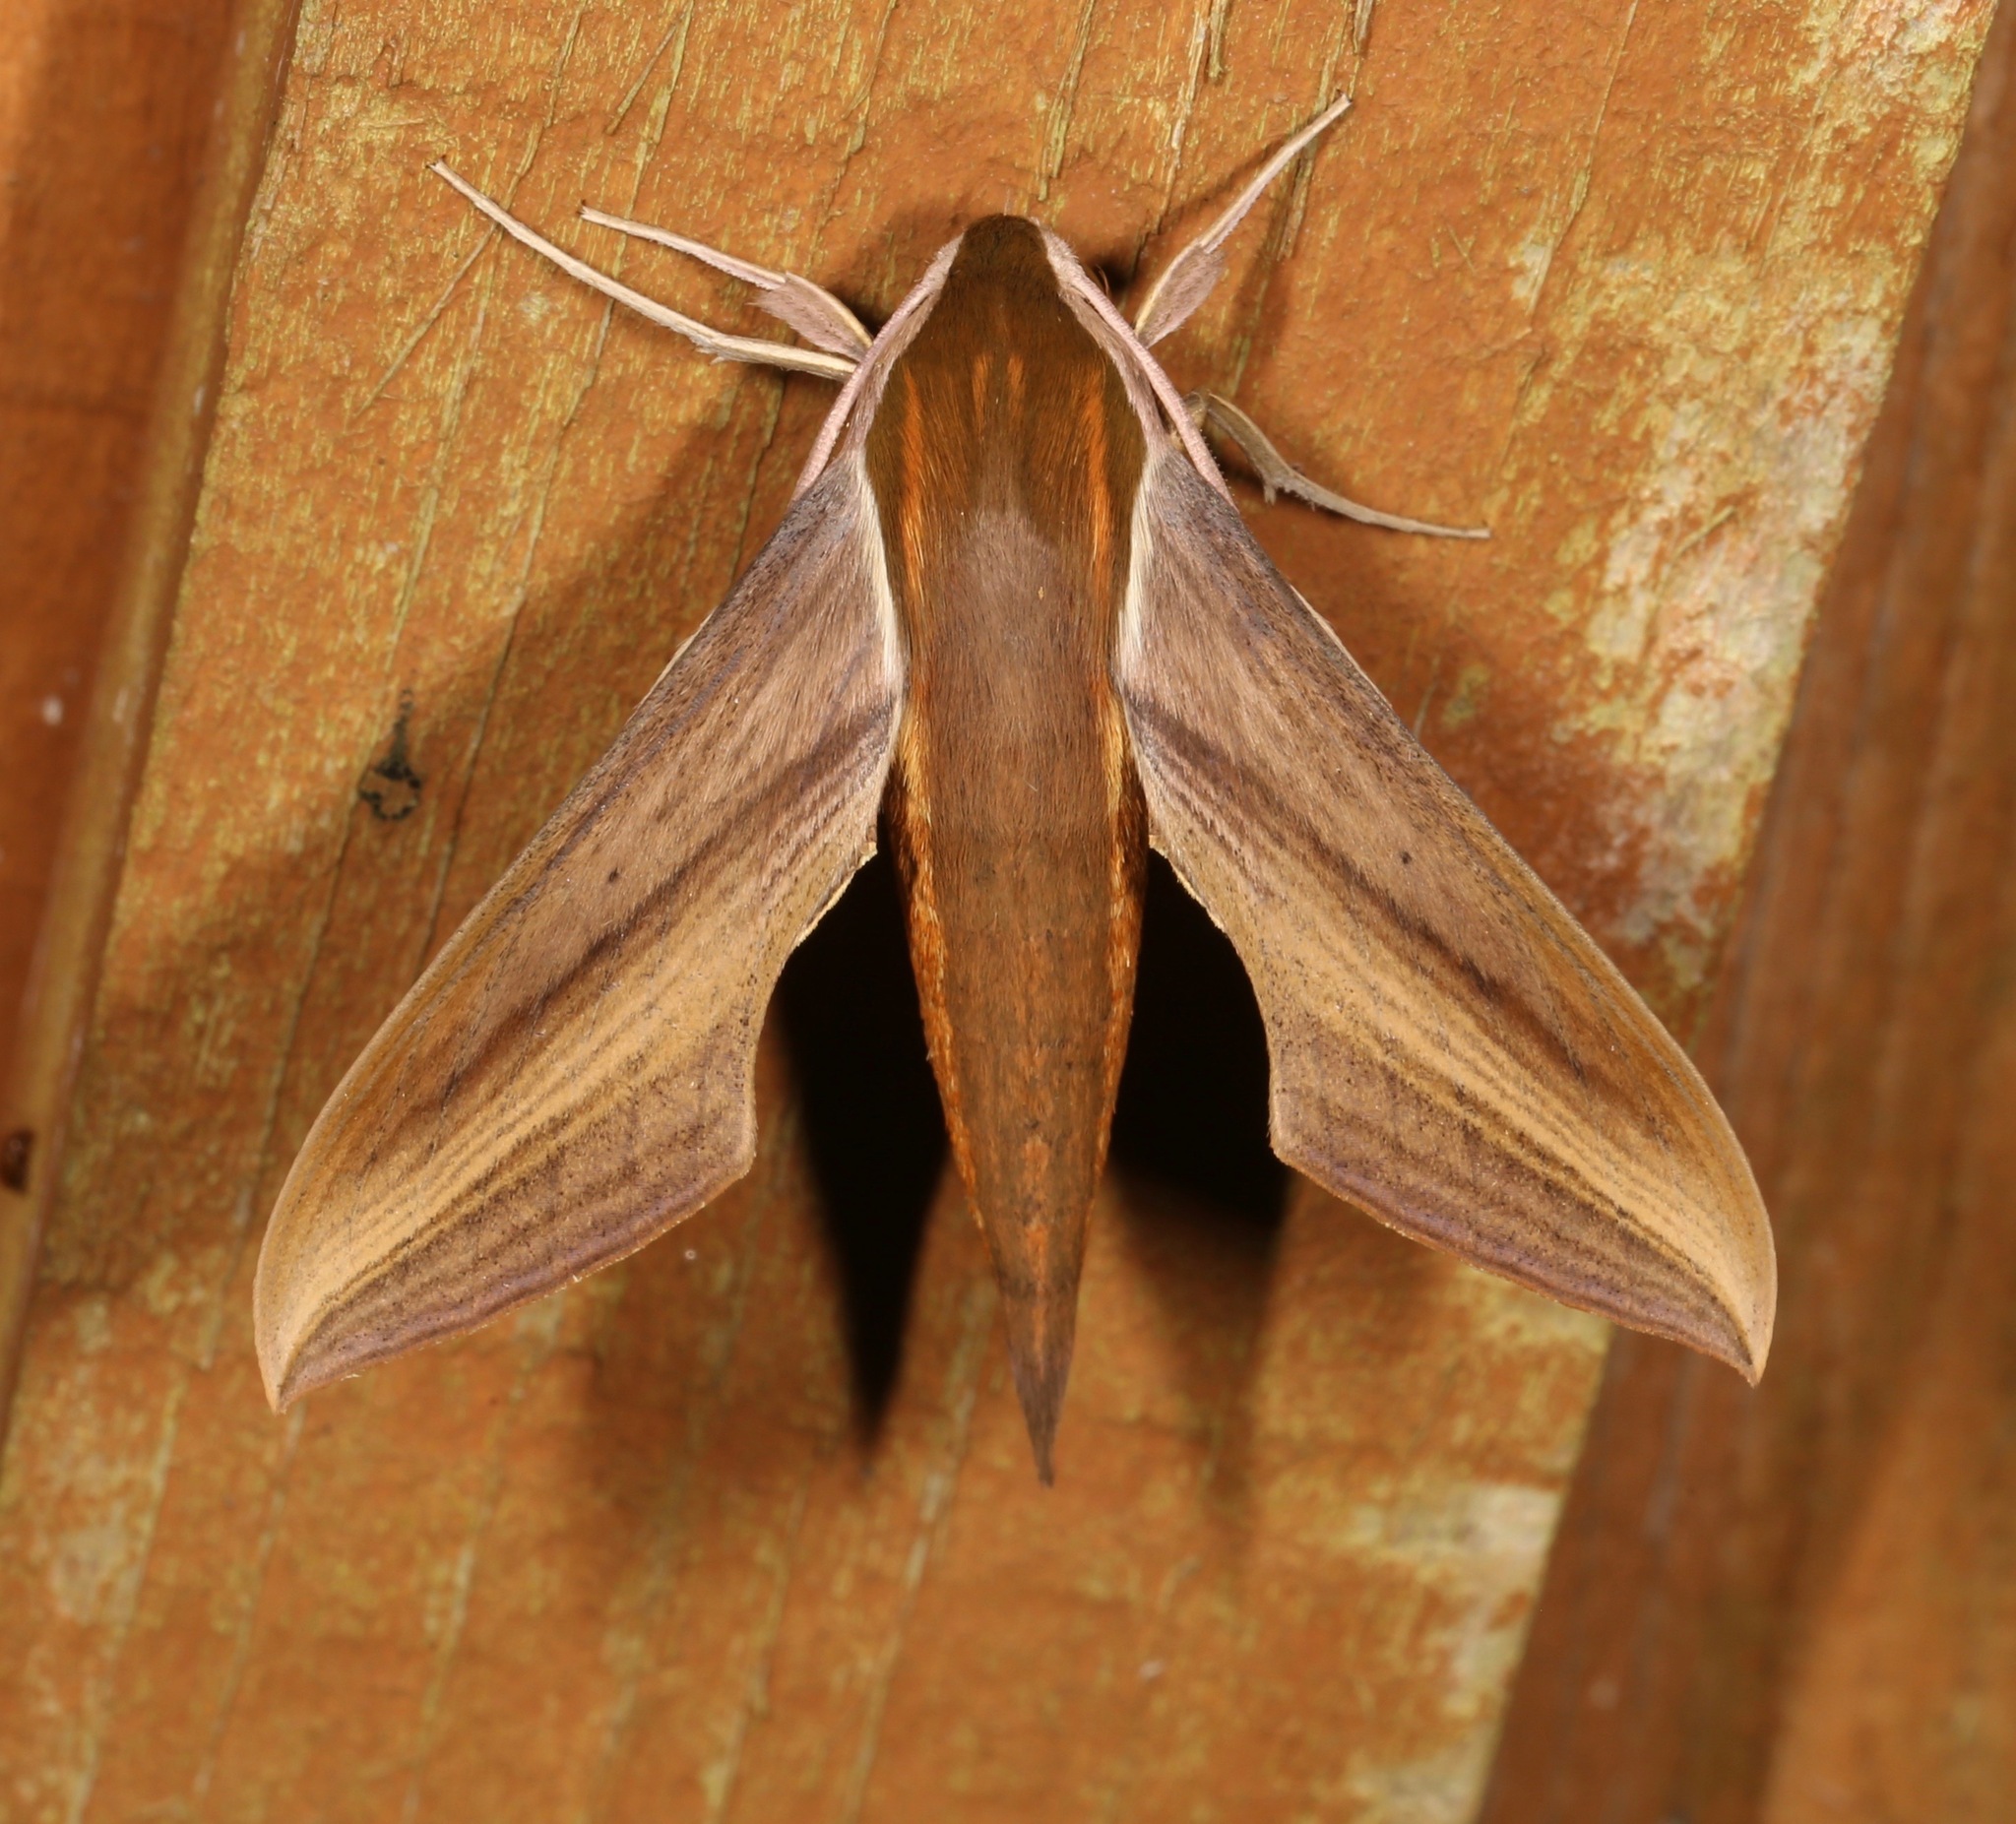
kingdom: Animalia
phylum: Arthropoda
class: Insecta
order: Lepidoptera
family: Sphingidae
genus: Xylophanes
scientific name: Xylophanes tersa
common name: Tersa sphinx
